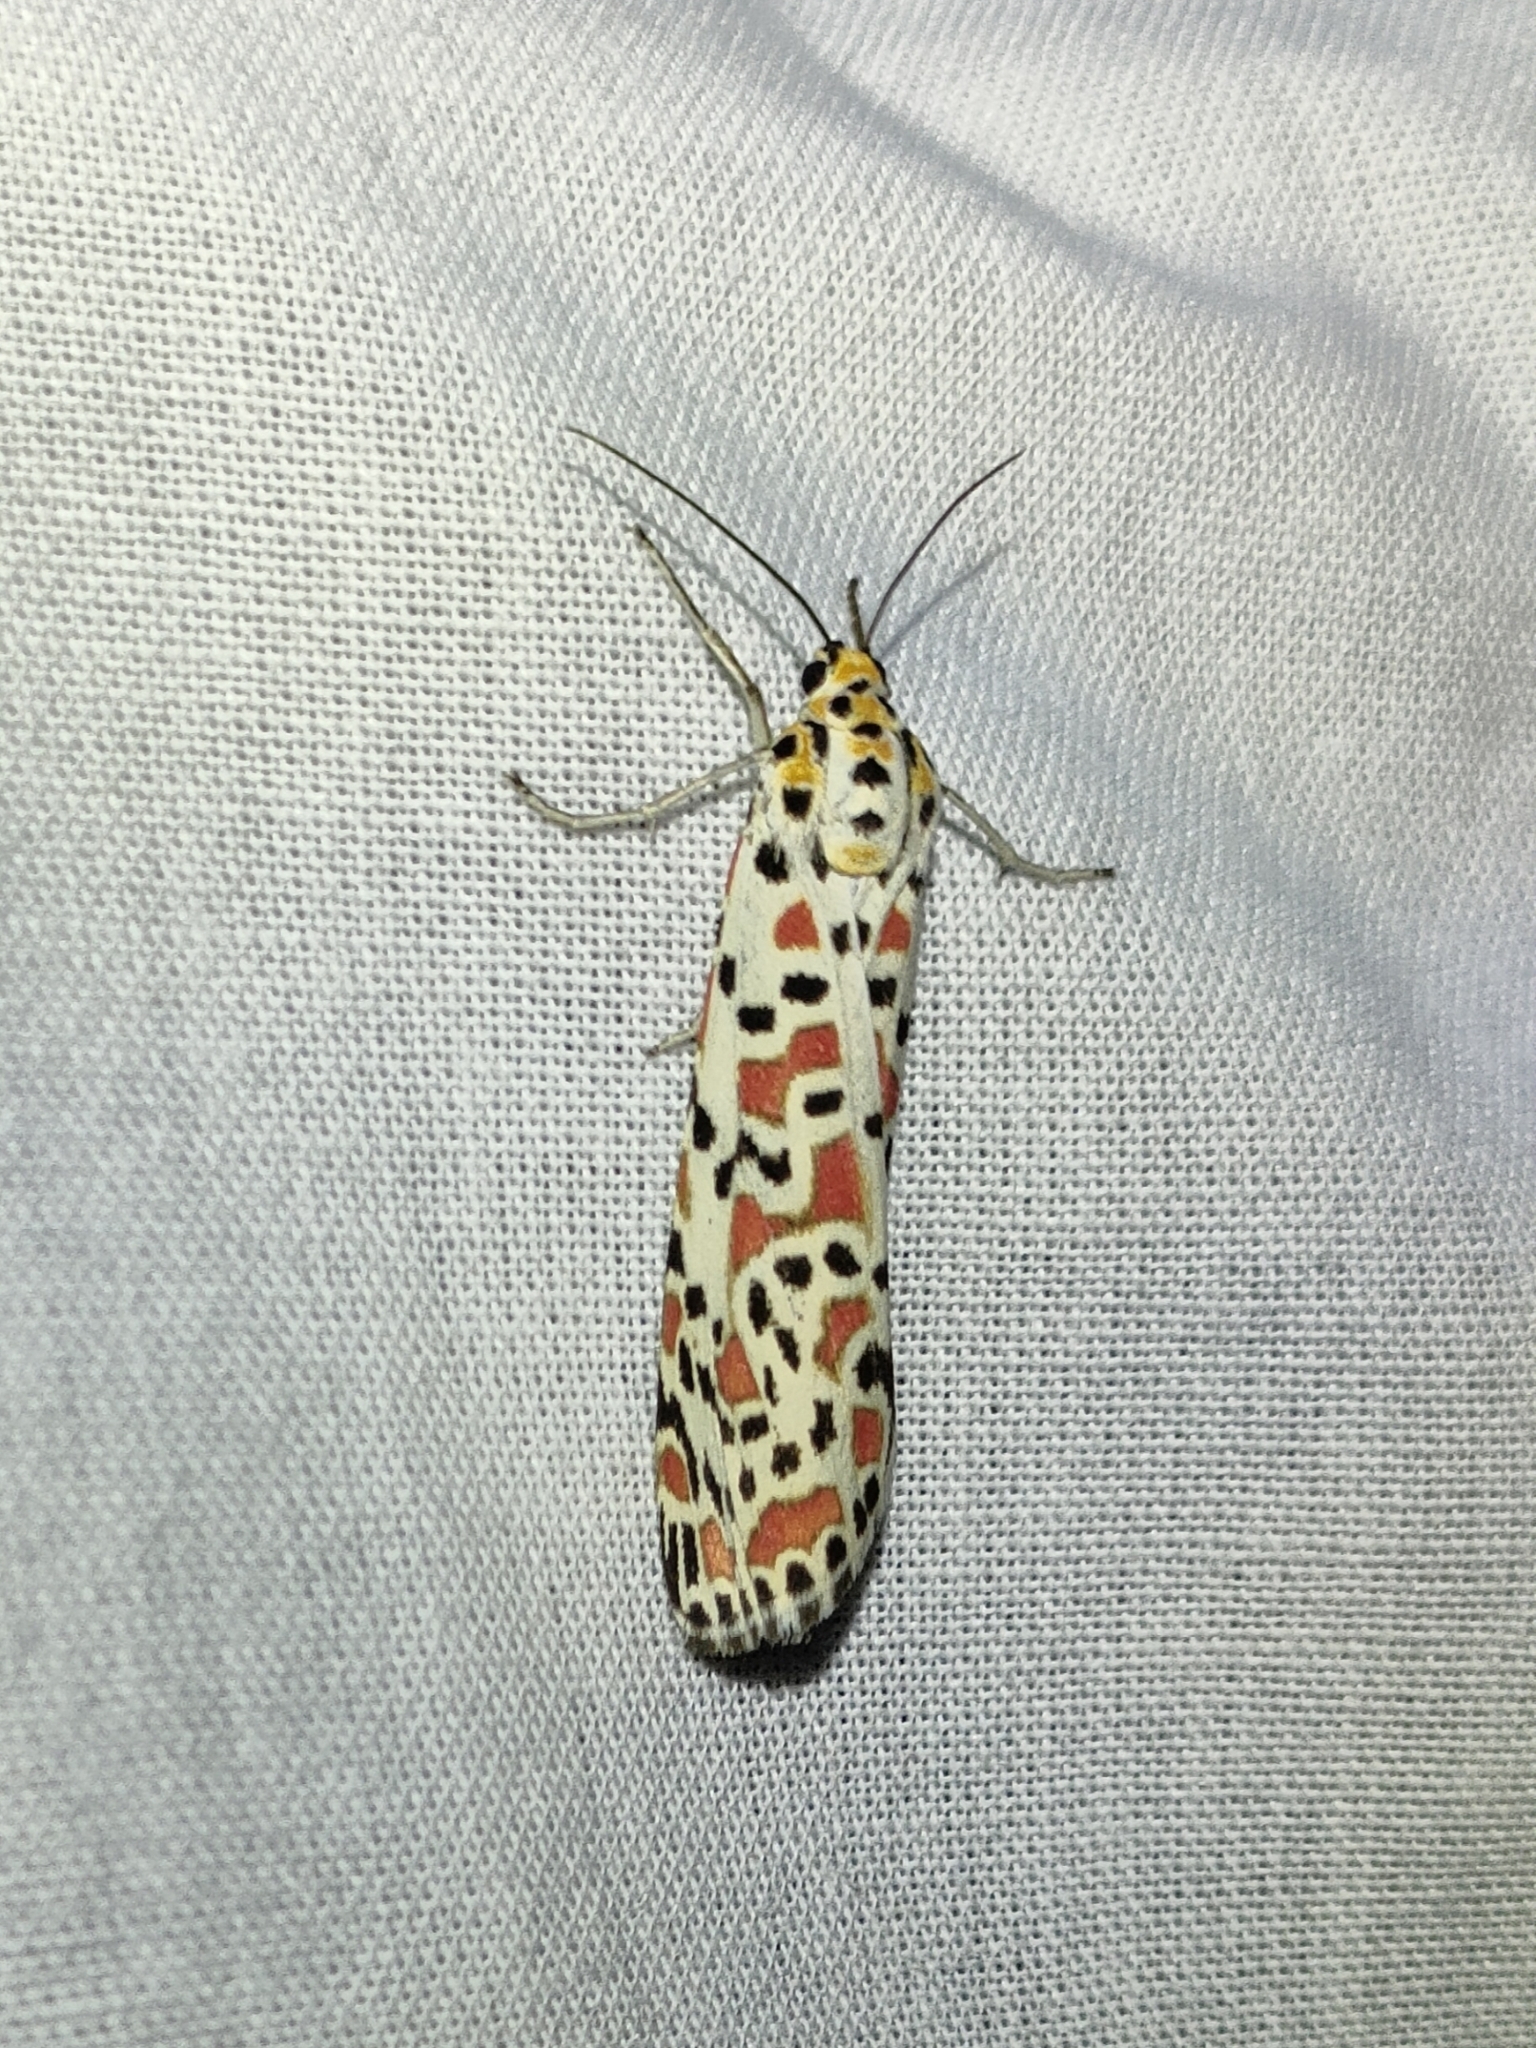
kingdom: Animalia
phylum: Arthropoda
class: Insecta
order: Lepidoptera
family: Erebidae
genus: Utetheisa
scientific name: Utetheisa pulchella
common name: Crimson speckled
